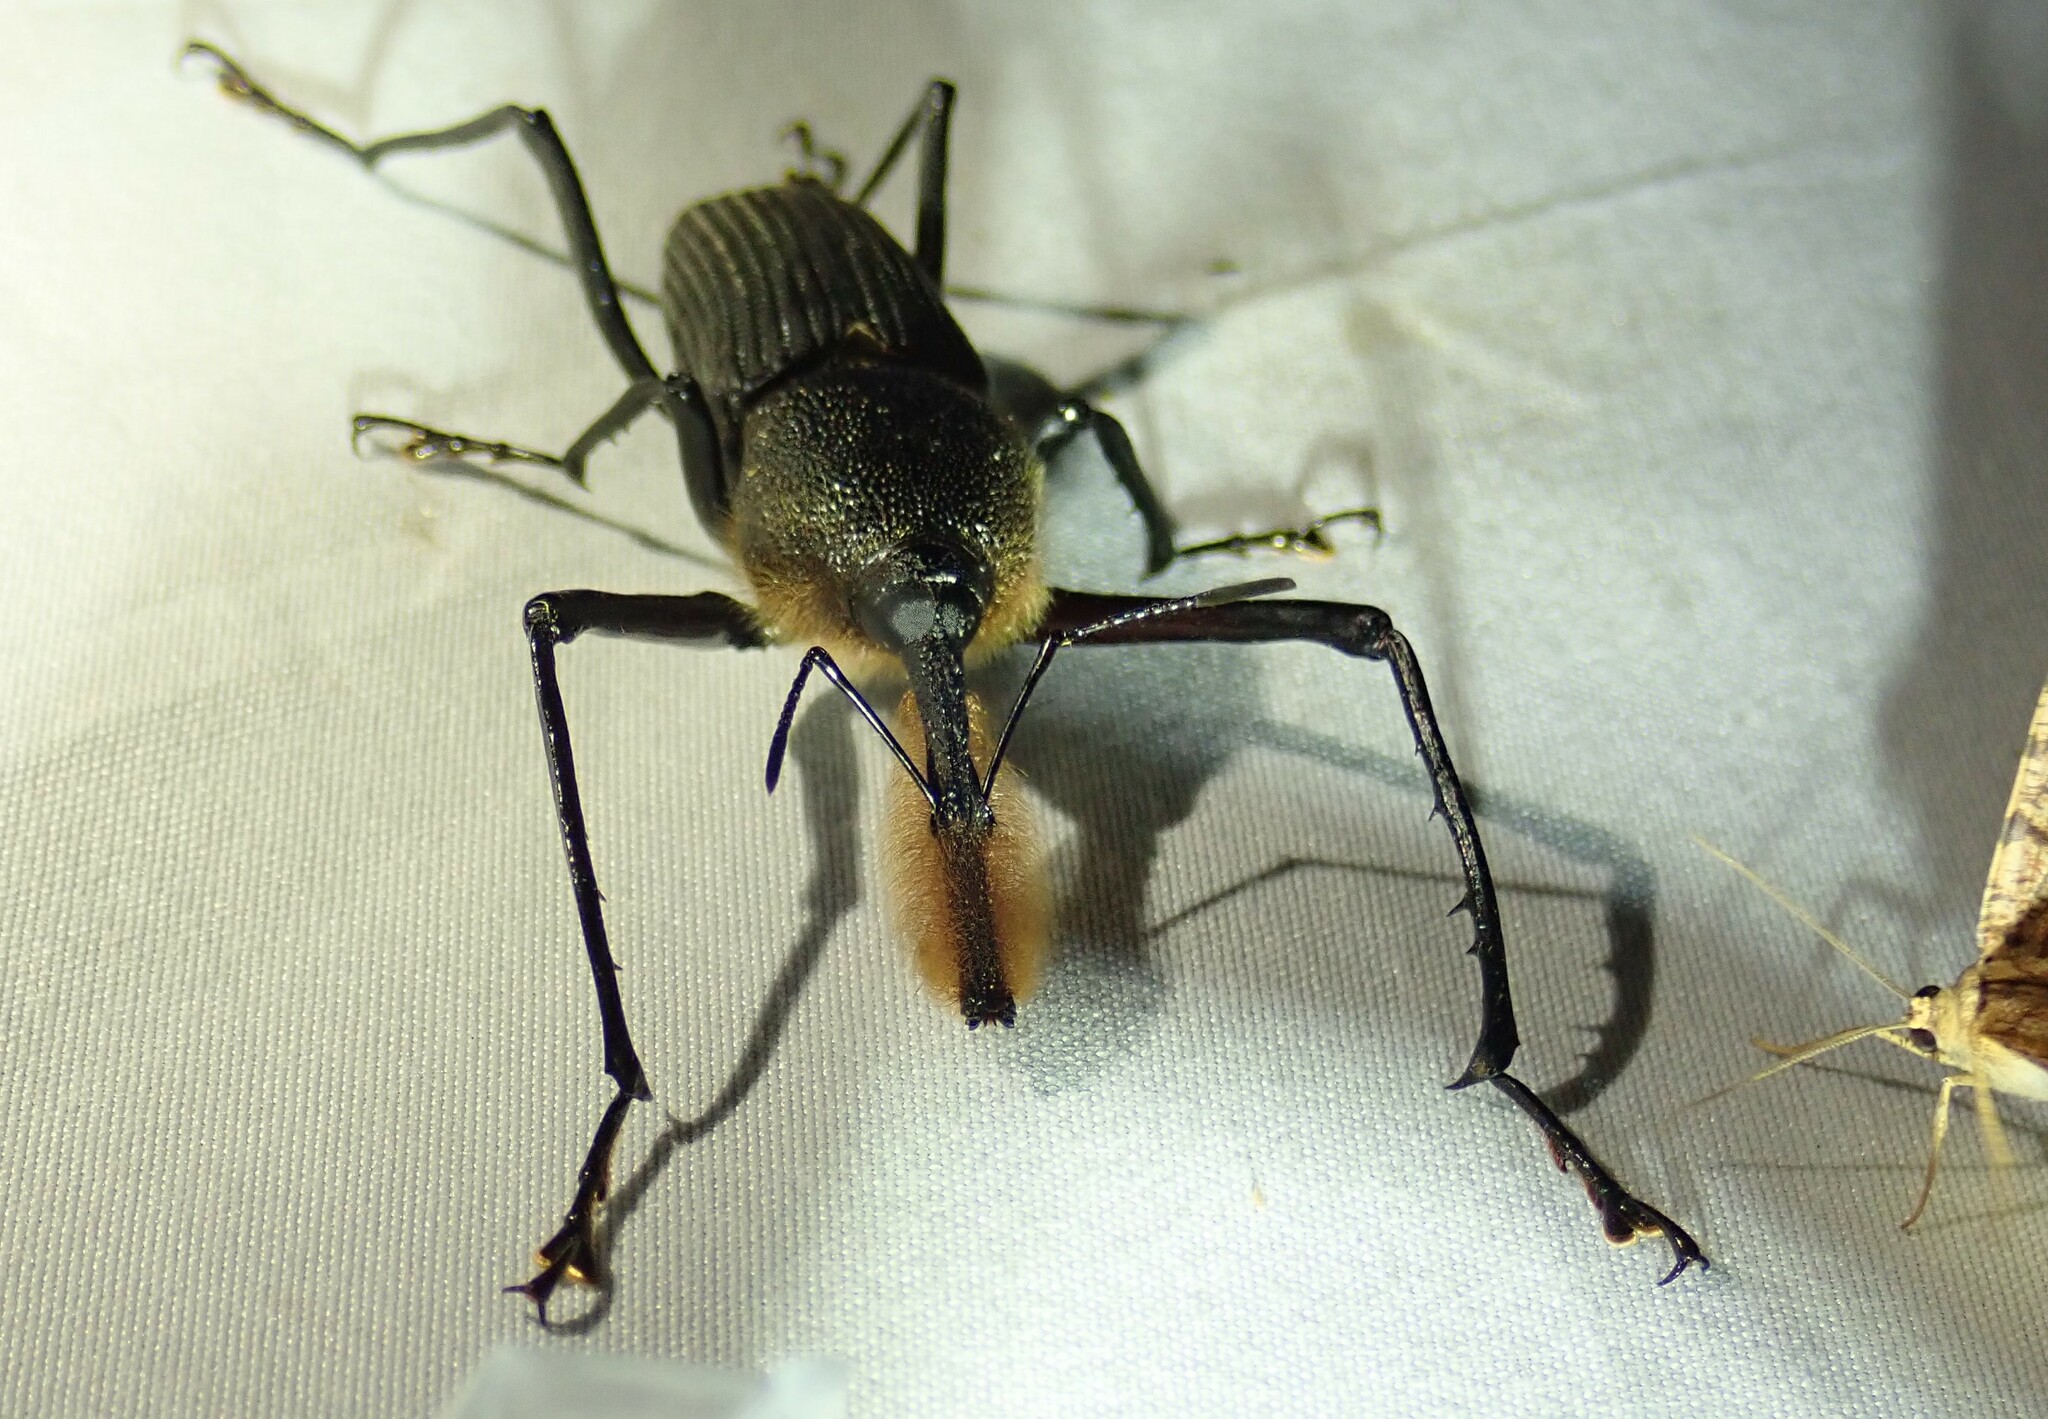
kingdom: Animalia
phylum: Arthropoda
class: Insecta
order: Coleoptera
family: Dryophthoridae
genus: Rhinostomus
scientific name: Rhinostomus barbirostris
